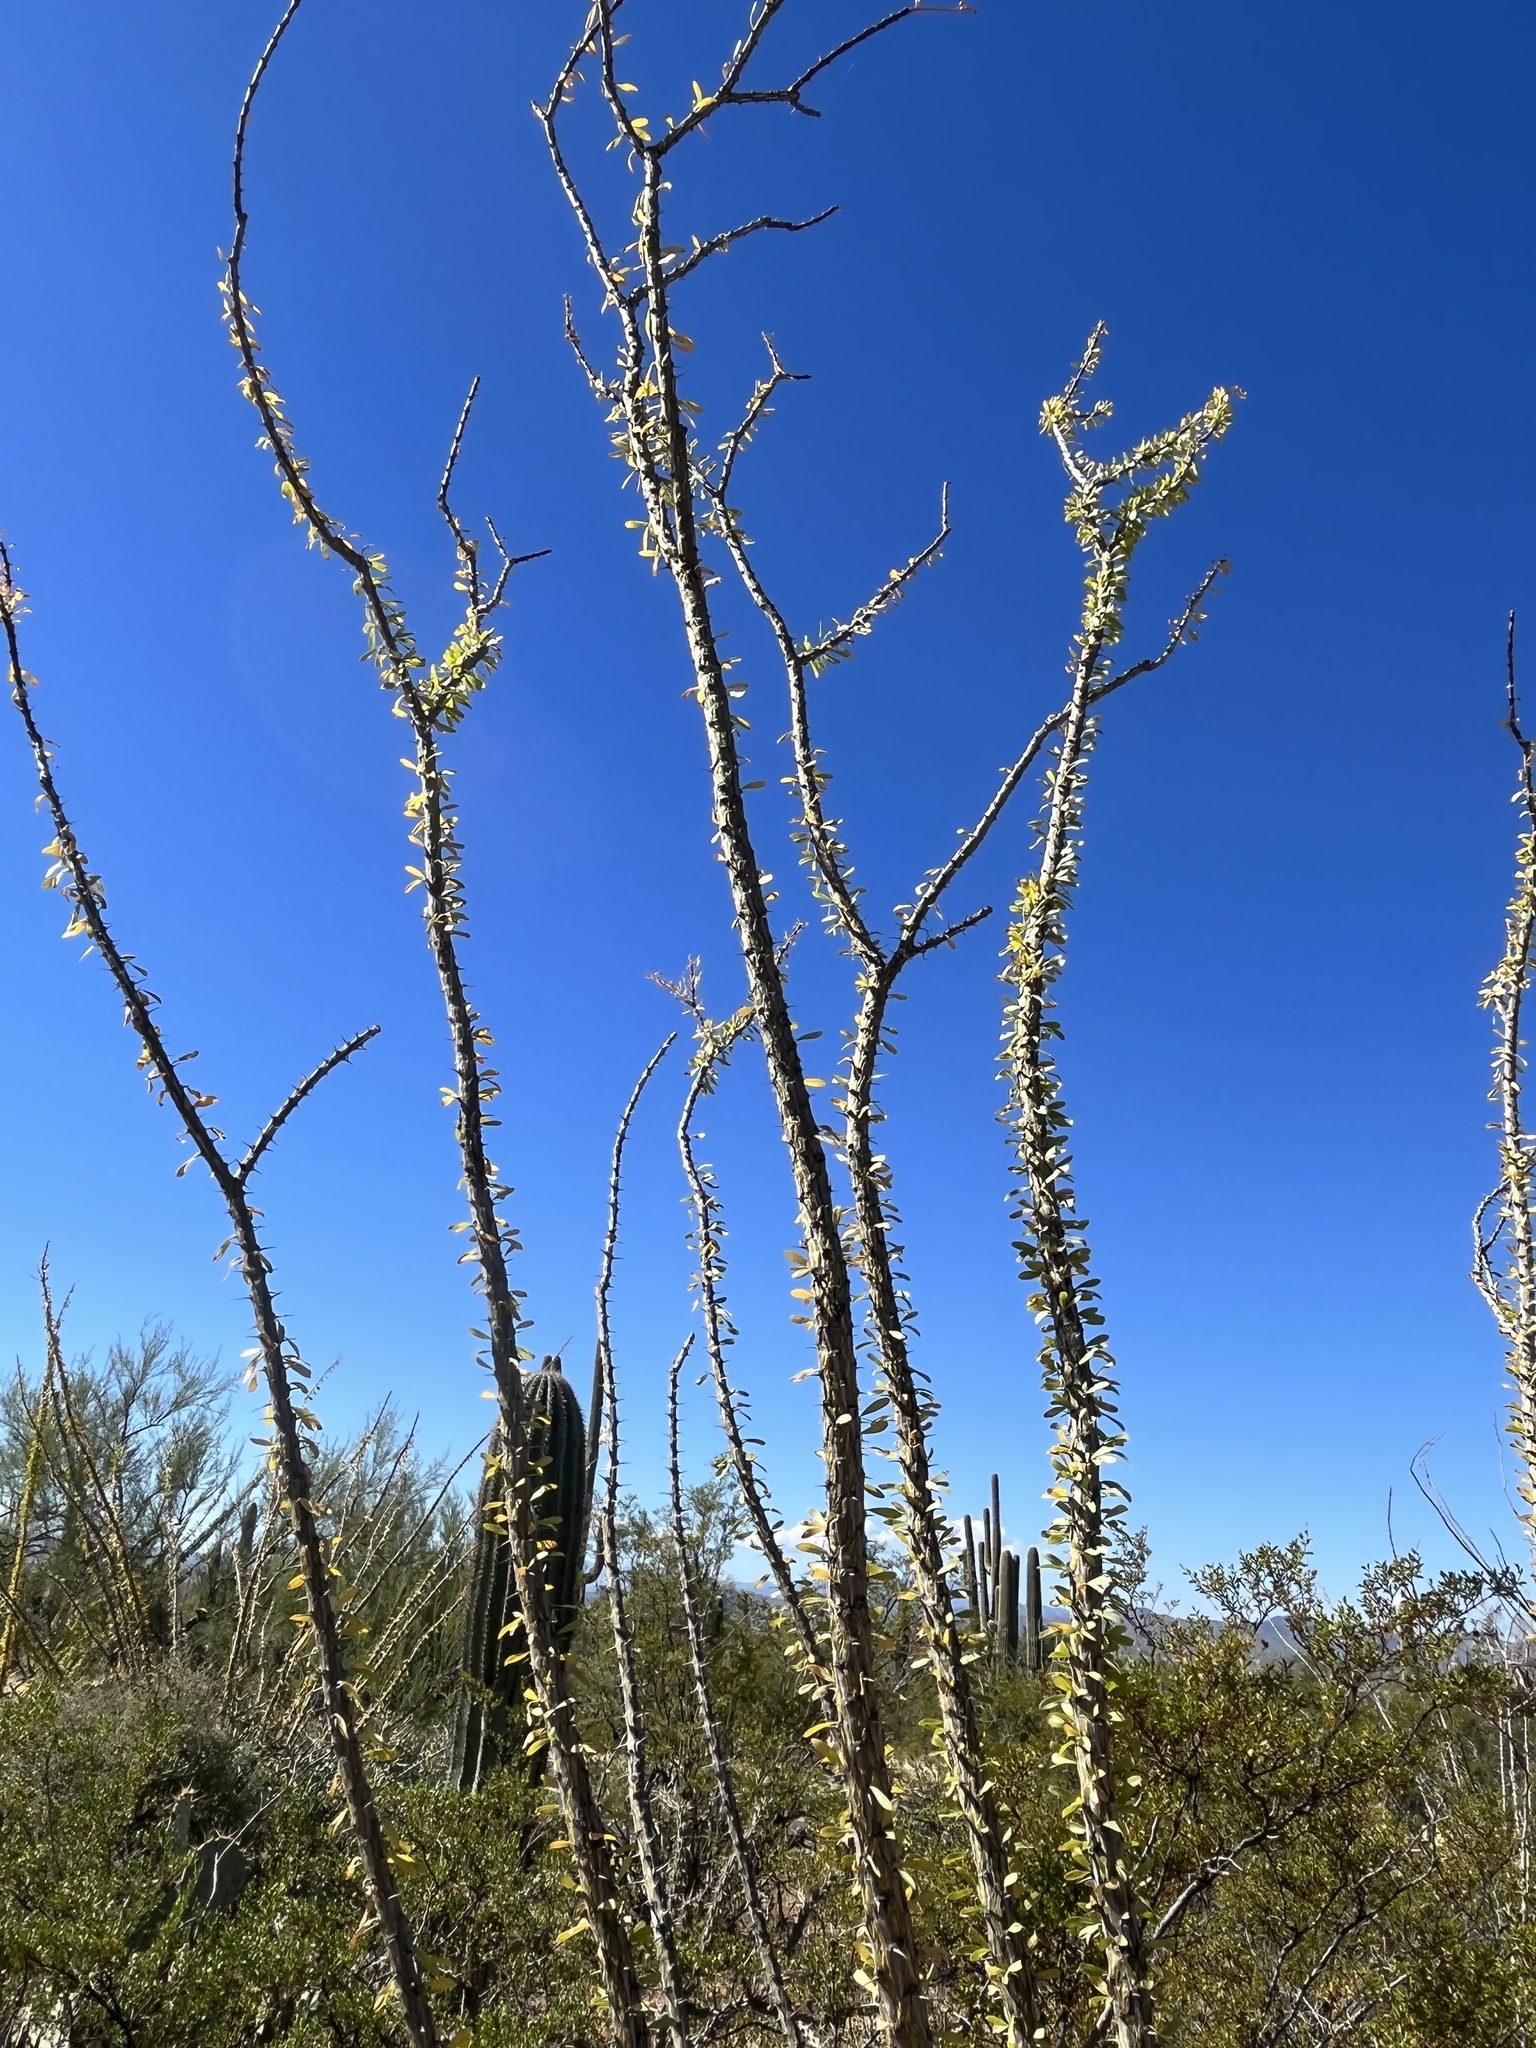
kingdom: Plantae
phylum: Tracheophyta
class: Magnoliopsida
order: Ericales
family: Fouquieriaceae
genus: Fouquieria
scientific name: Fouquieria splendens
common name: Vine-cactus
